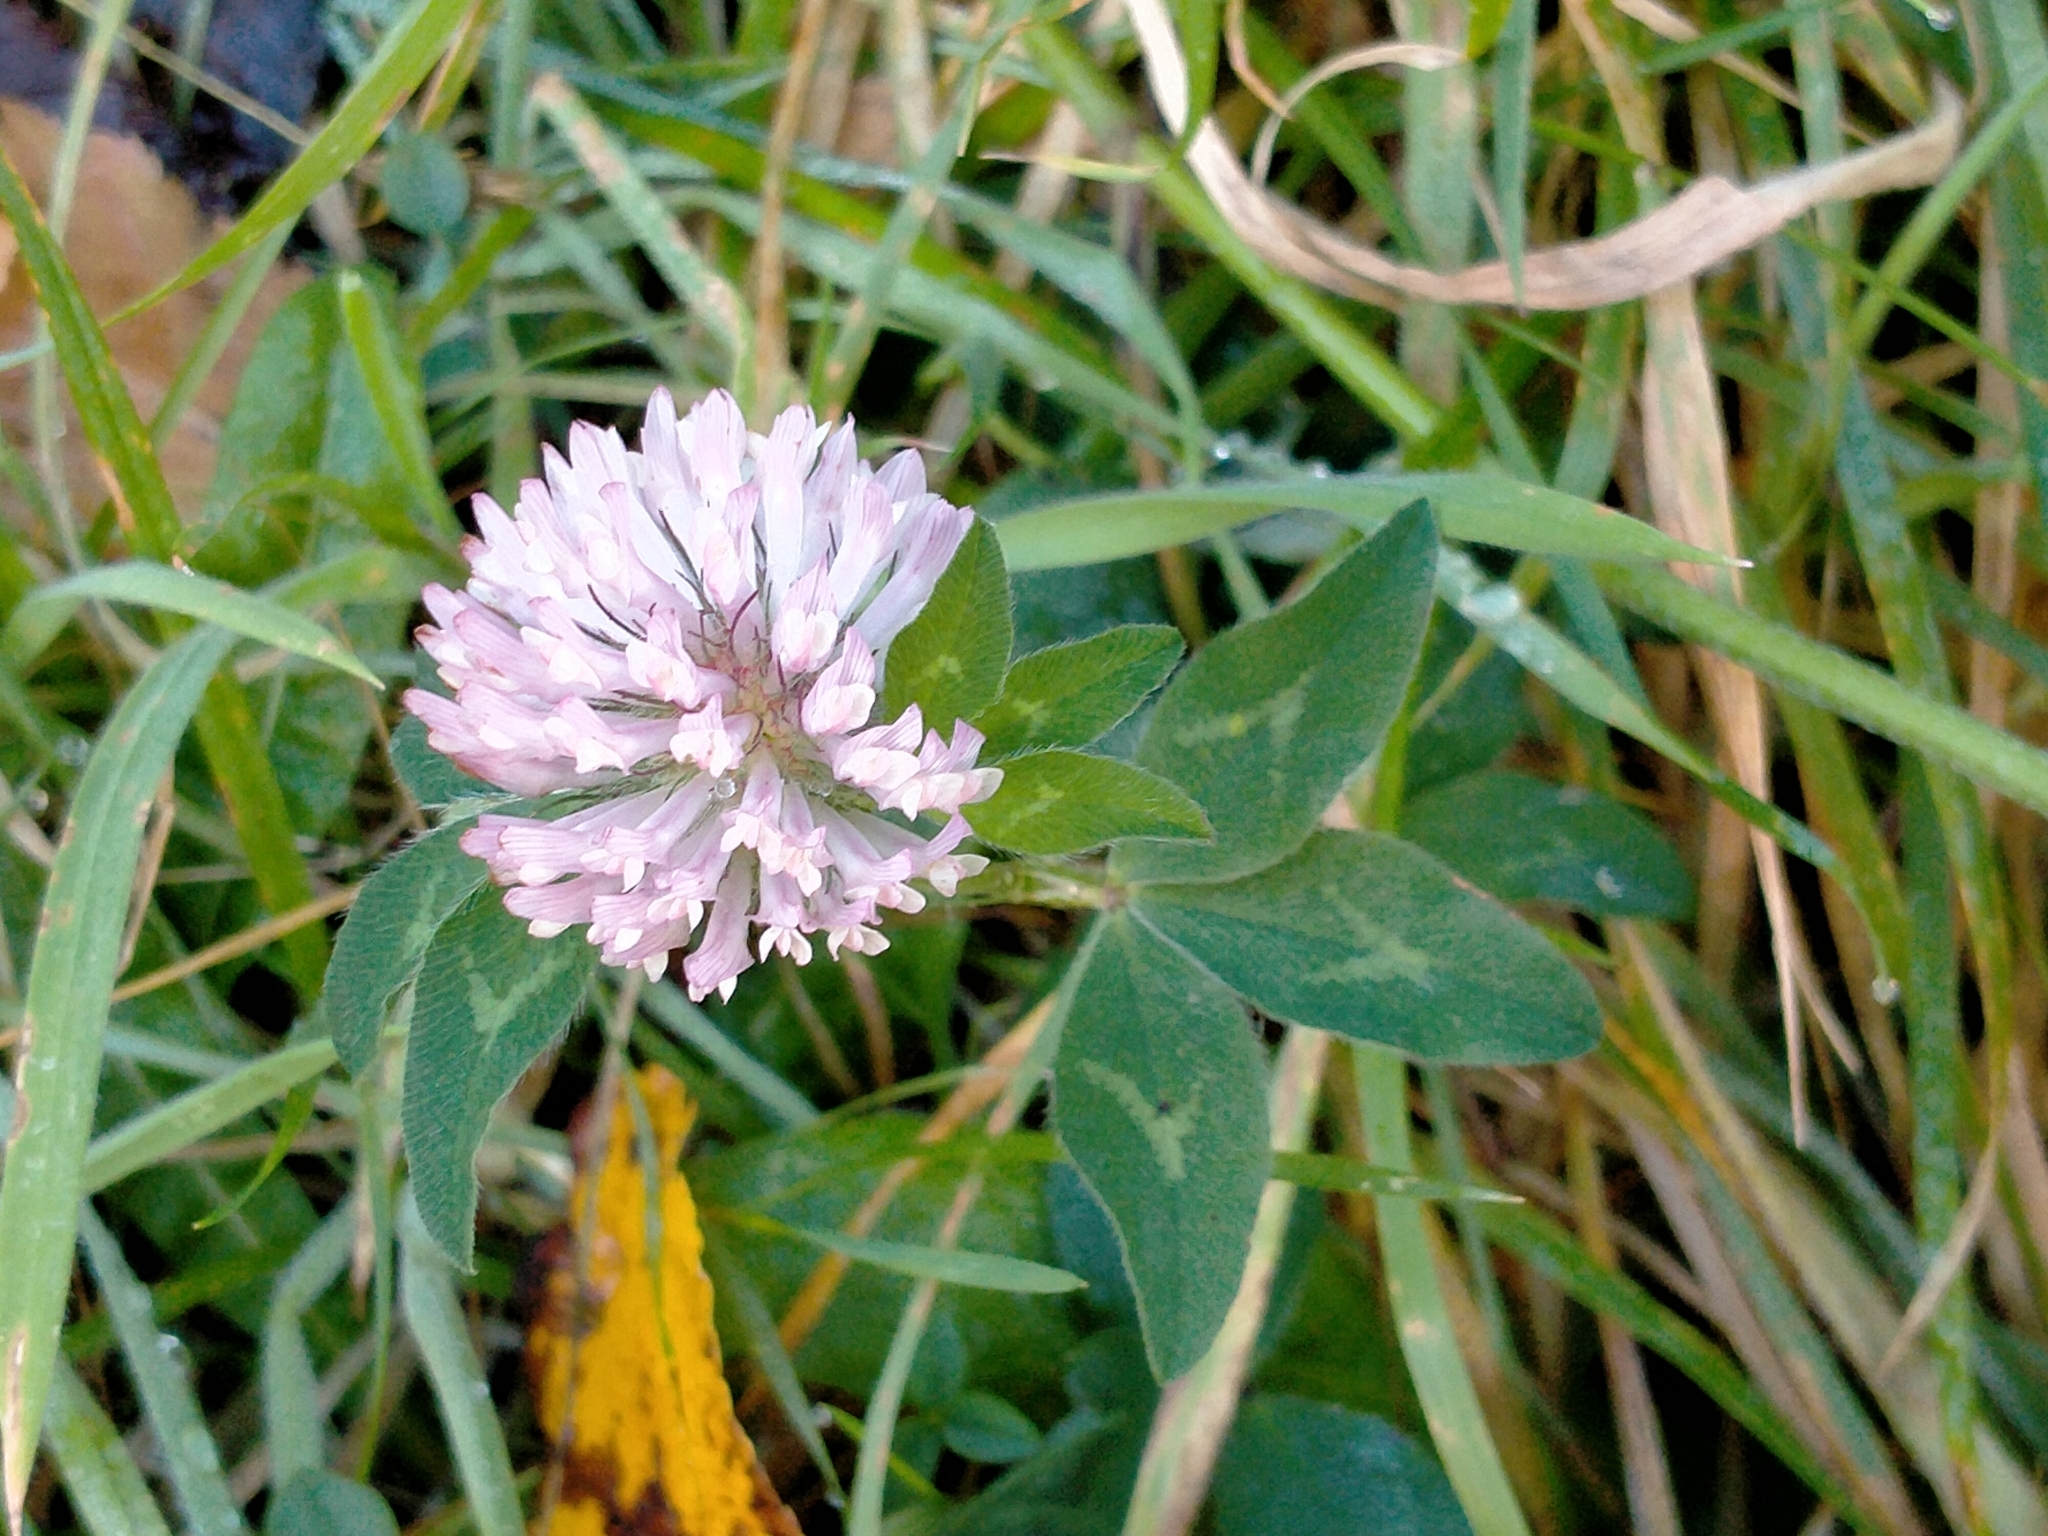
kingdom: Plantae
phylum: Tracheophyta
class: Magnoliopsida
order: Fabales
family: Fabaceae
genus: Trifolium
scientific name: Trifolium pratense
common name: Red clover
